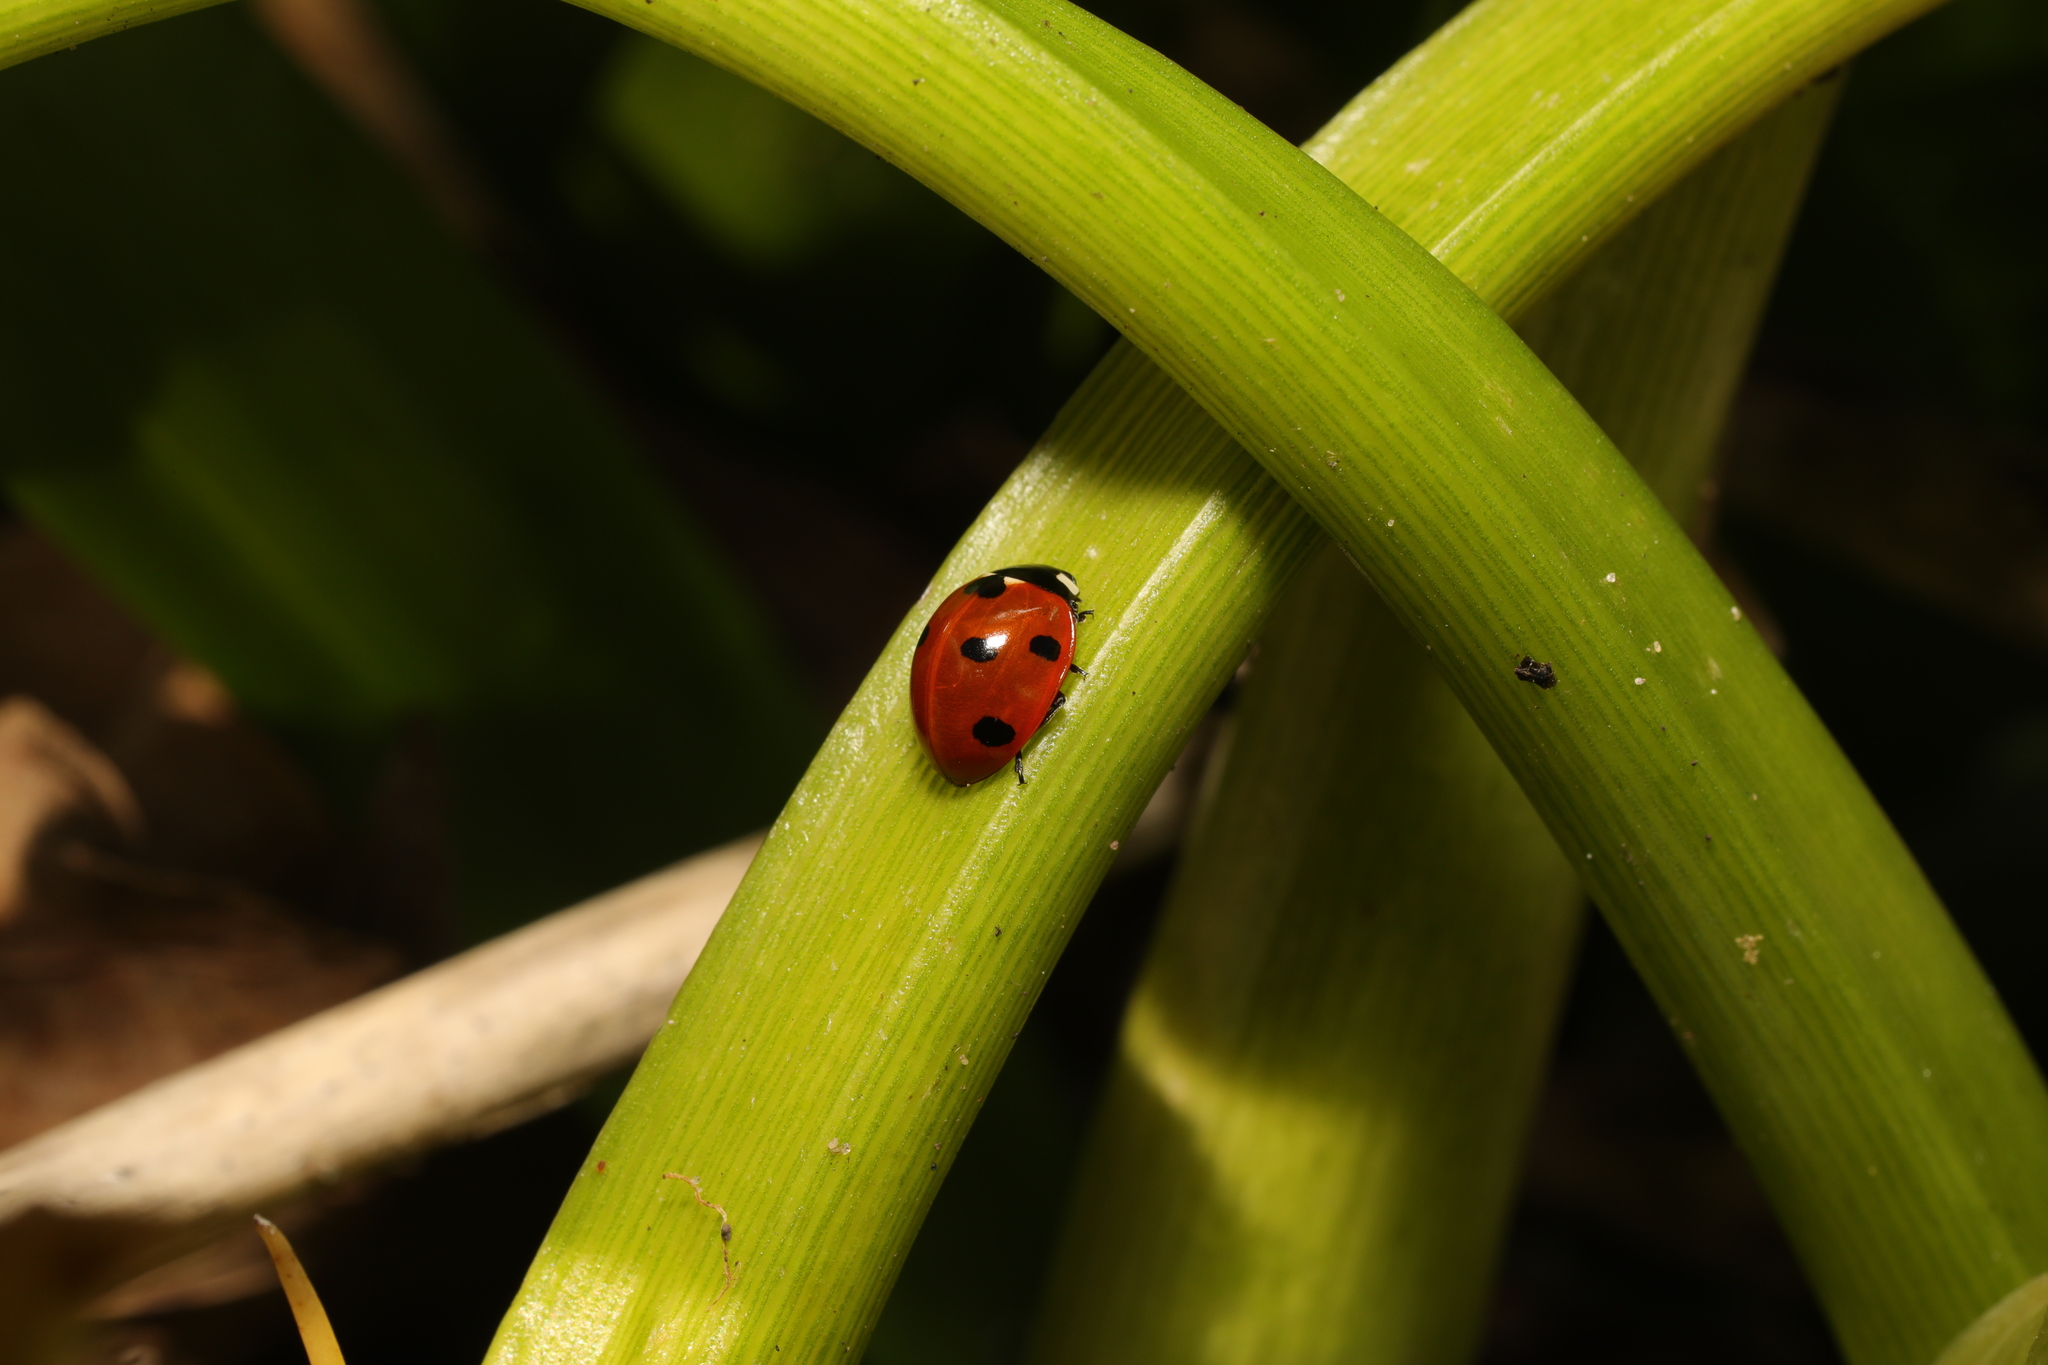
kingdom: Animalia
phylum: Arthropoda
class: Insecta
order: Coleoptera
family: Coccinellidae
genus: Coccinella
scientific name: Coccinella septempunctata
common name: Sevenspotted lady beetle
